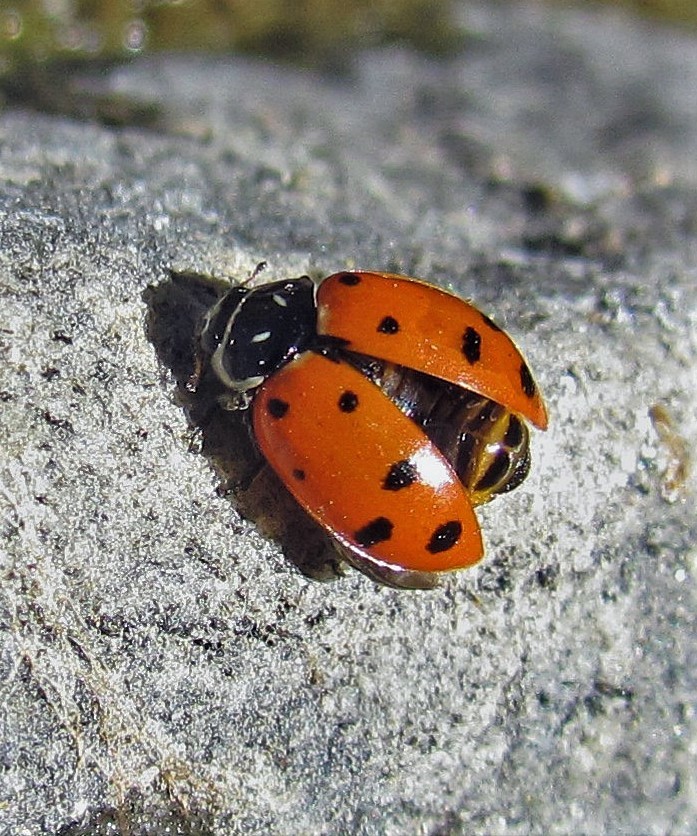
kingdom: Animalia
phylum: Arthropoda
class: Insecta
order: Coleoptera
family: Coccinellidae
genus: Hippodamia
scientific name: Hippodamia convergens
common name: Convergent lady beetle
